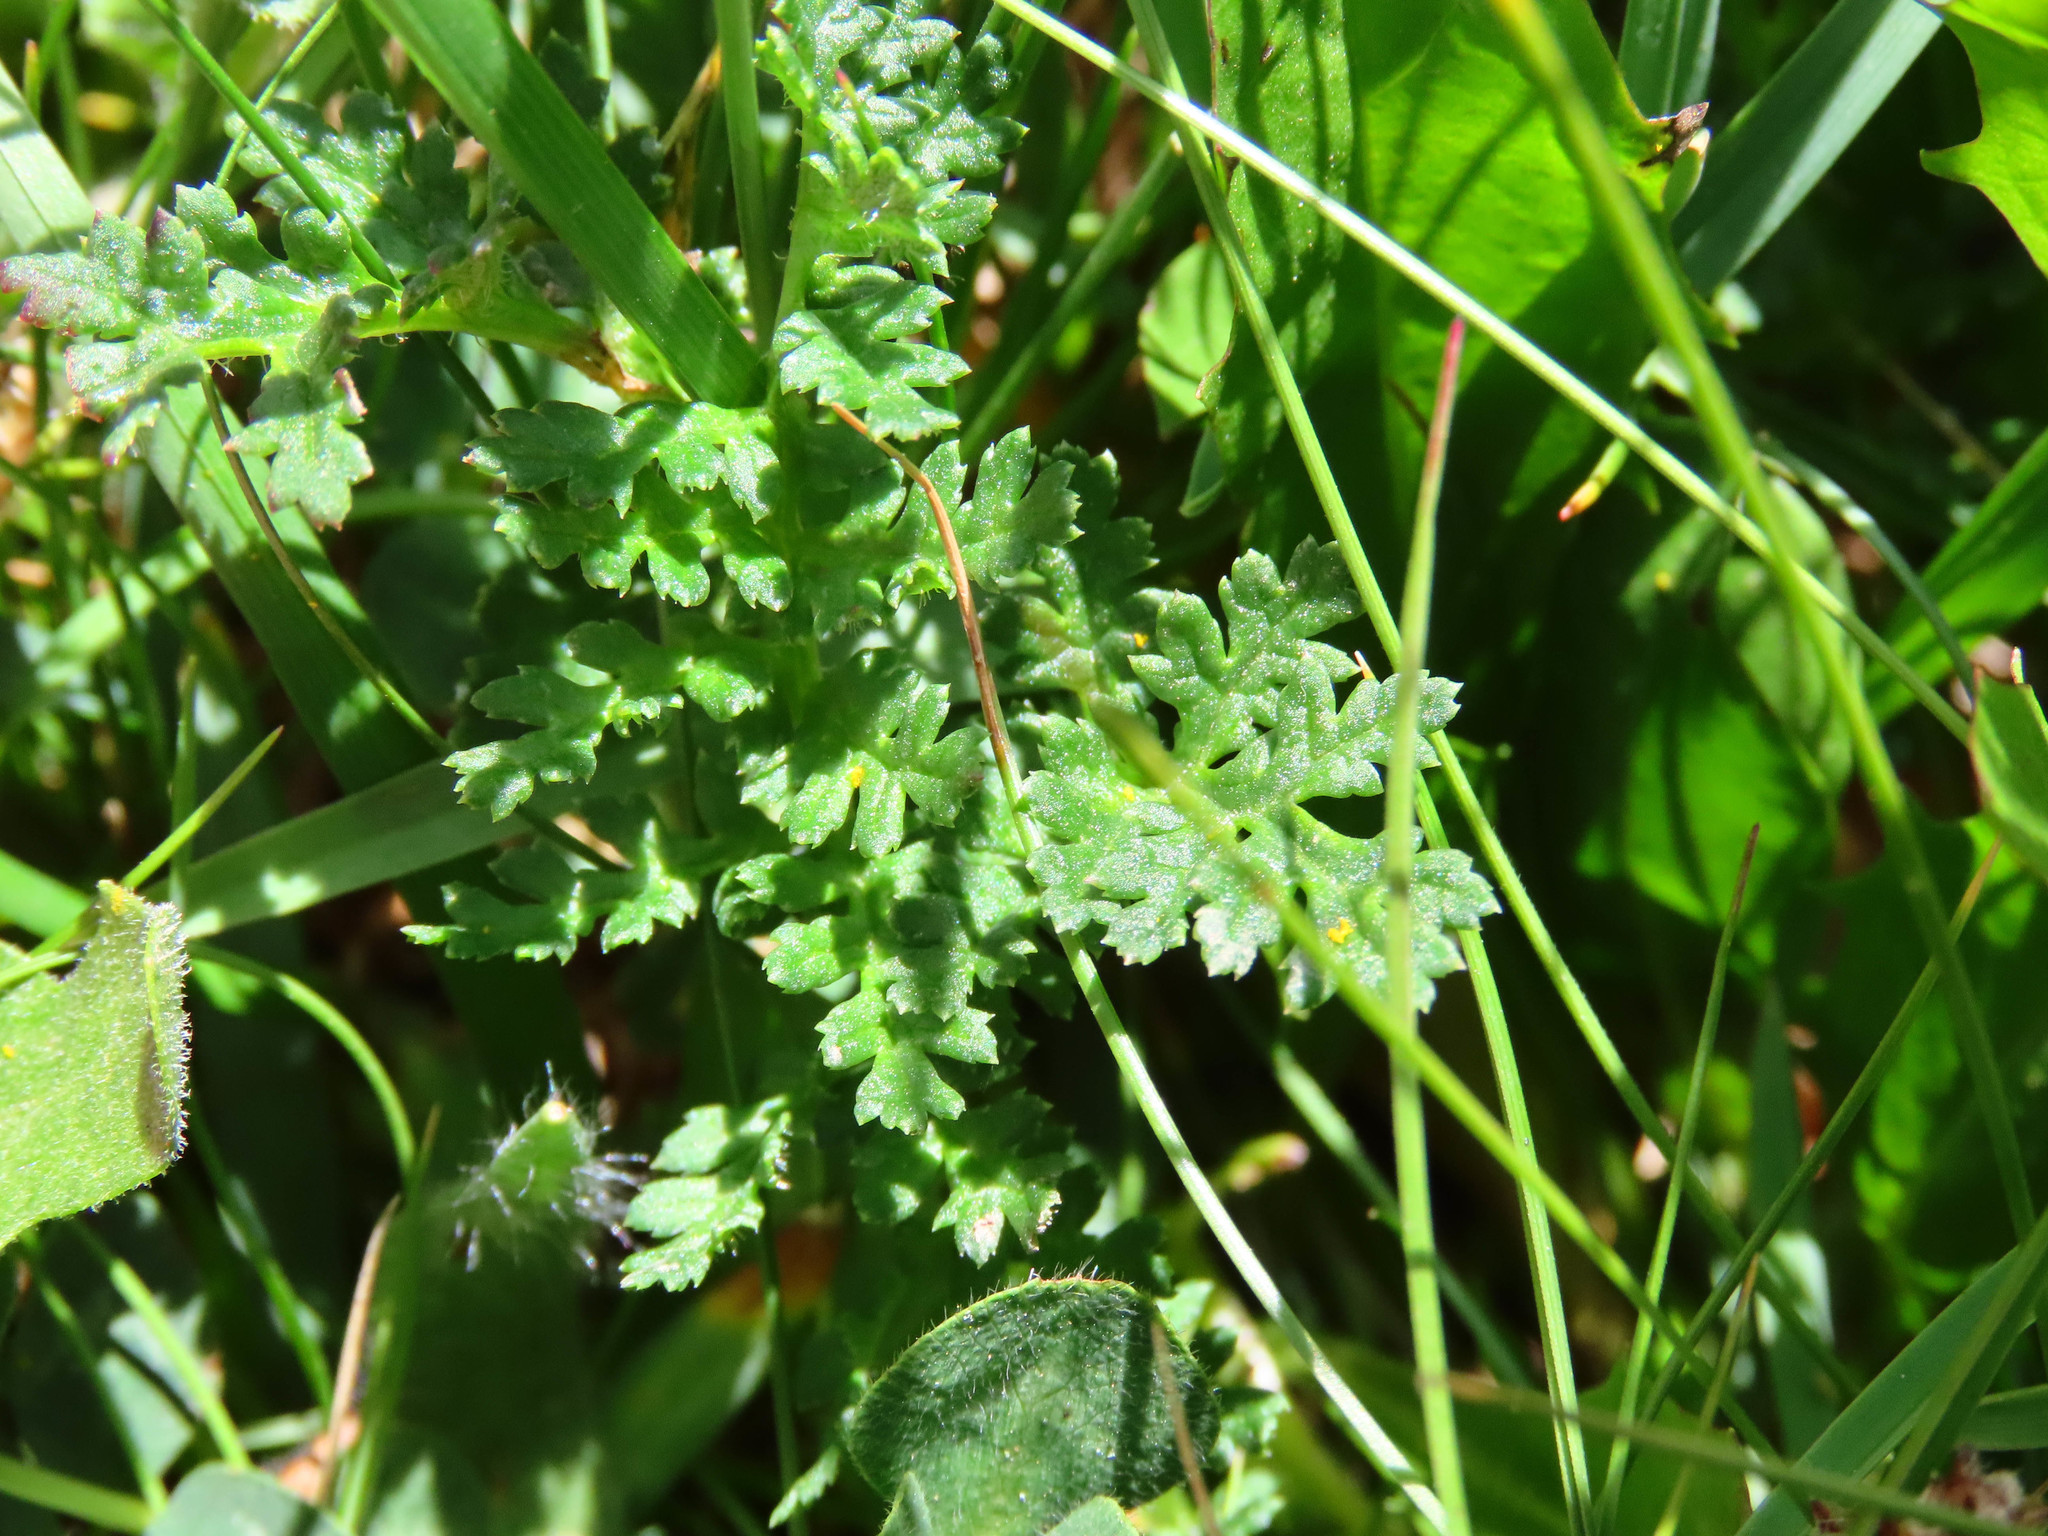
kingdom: Plantae
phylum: Tracheophyta
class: Magnoliopsida
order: Lamiales
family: Orobanchaceae
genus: Pedicularis
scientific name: Pedicularis tuberosa
